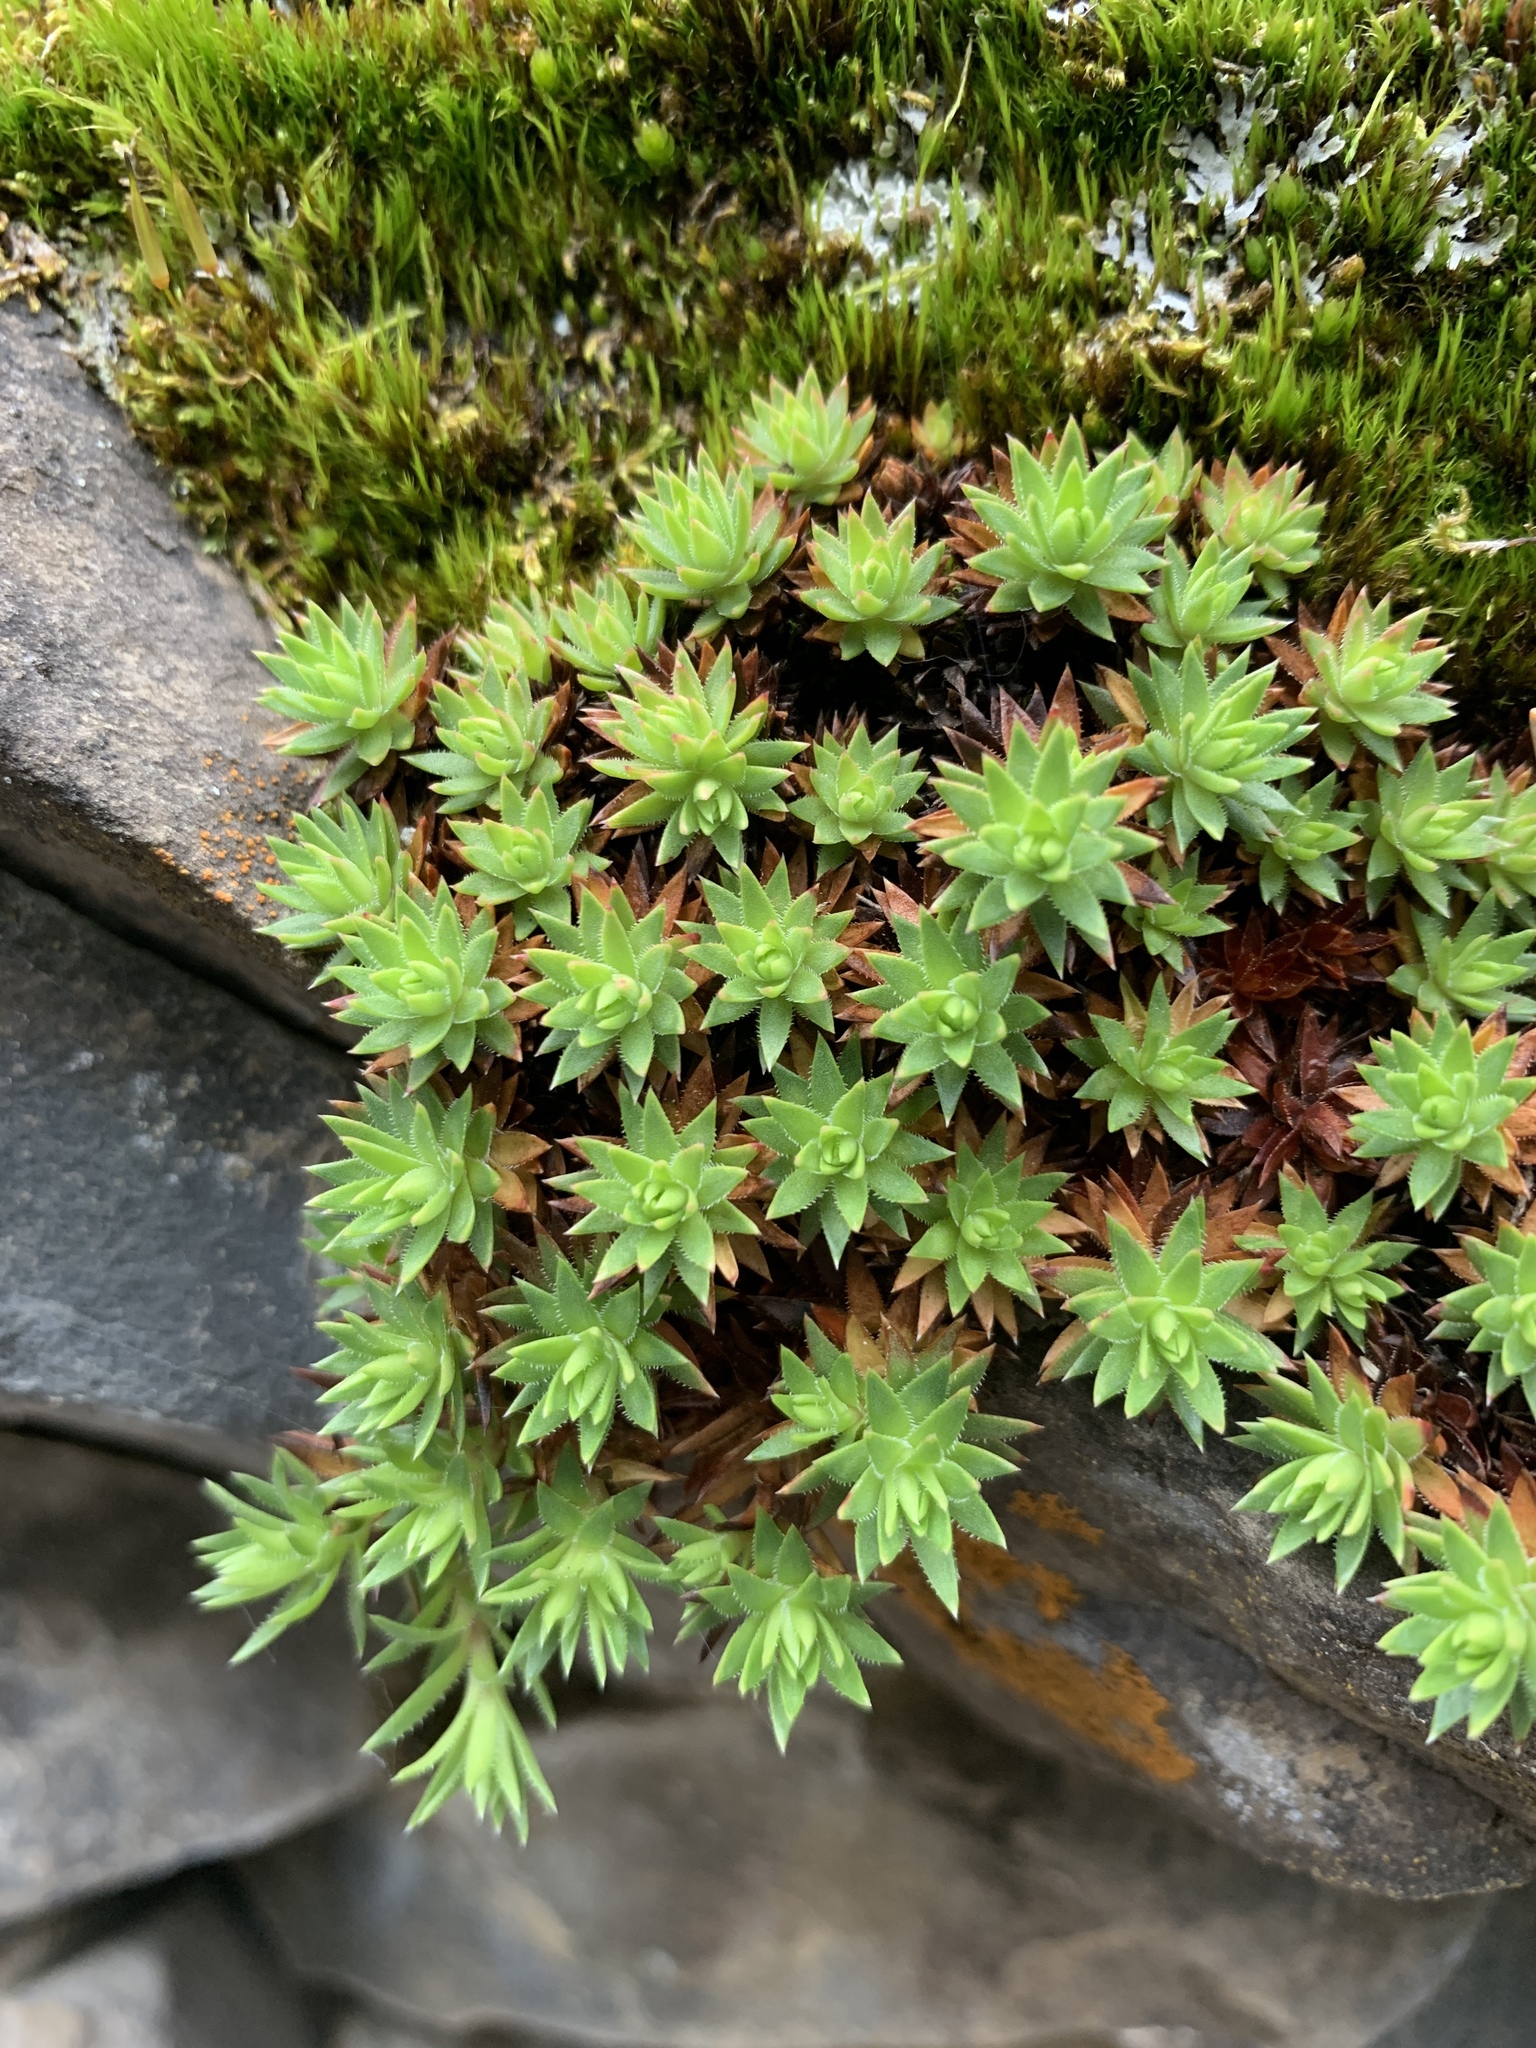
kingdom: Plantae
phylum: Tracheophyta
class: Magnoliopsida
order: Saxifragales
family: Saxifragaceae
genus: Saxifraga
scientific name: Saxifraga bronchialis
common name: Matted saxifrage
